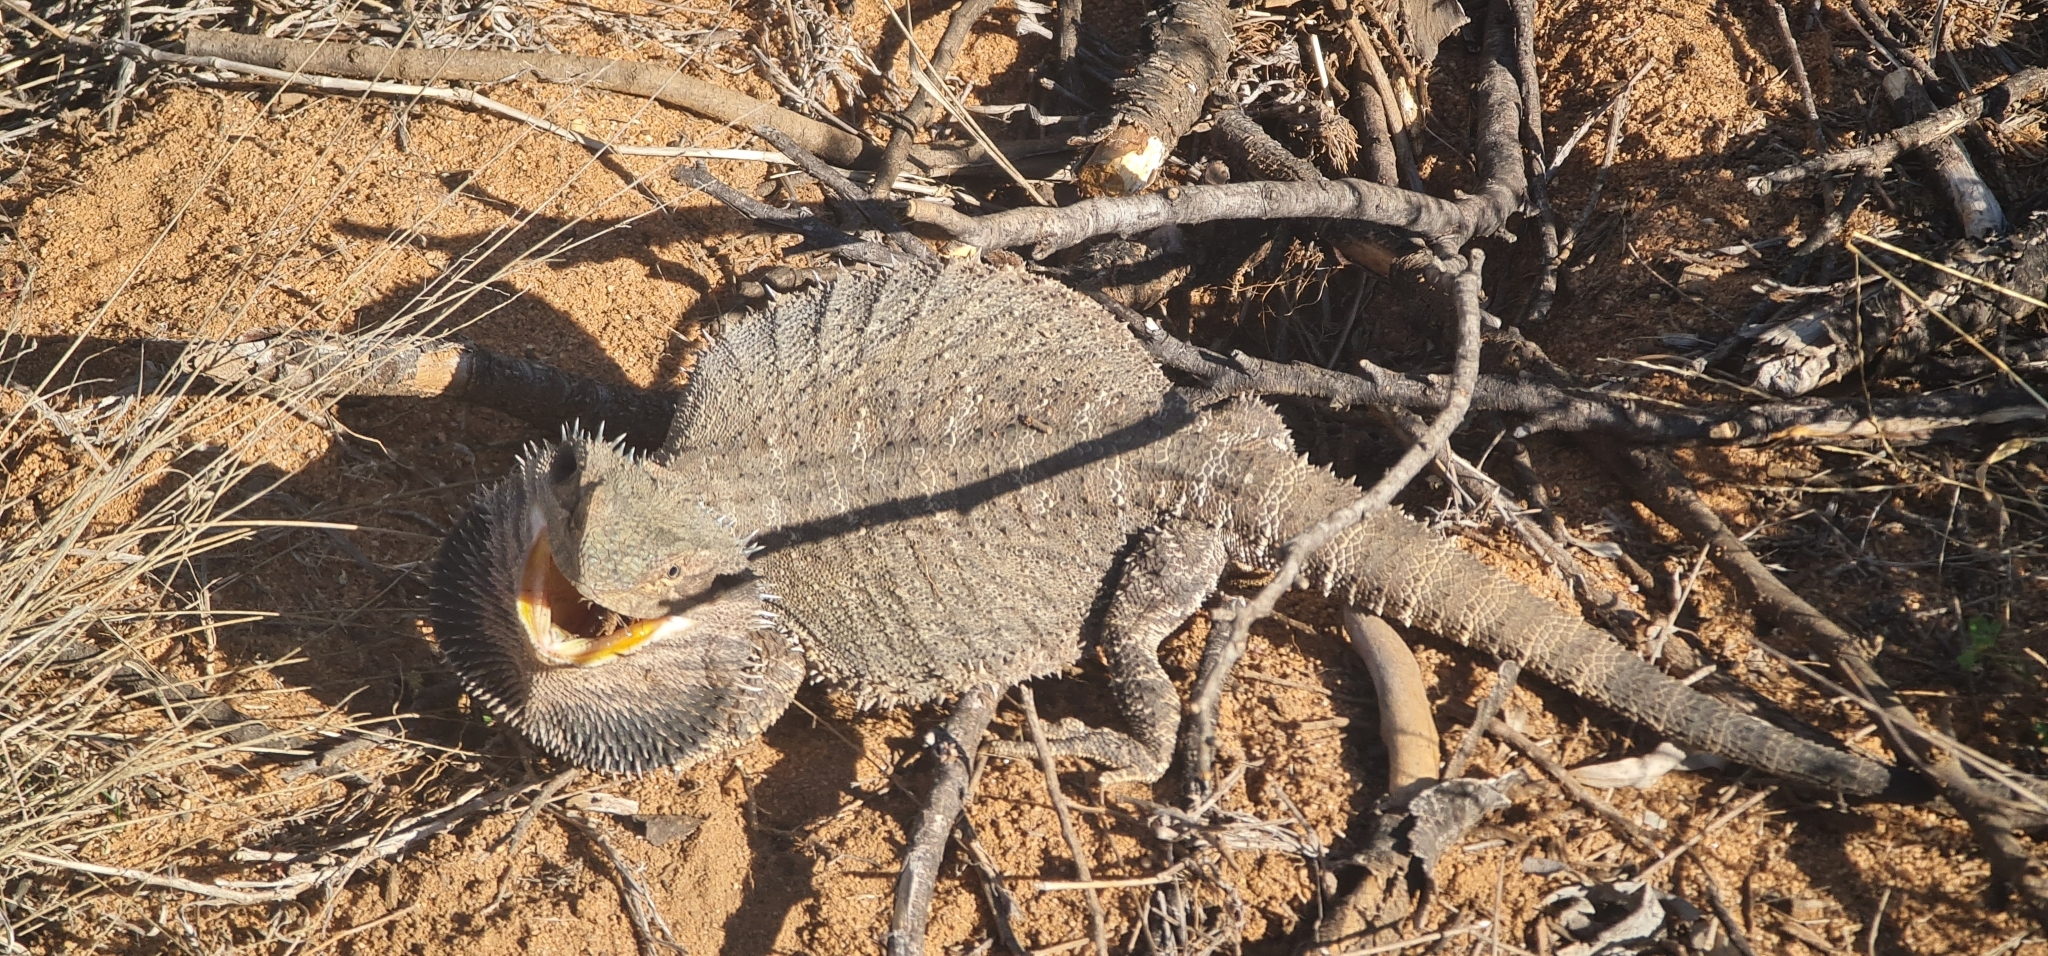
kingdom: Animalia
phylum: Chordata
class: Squamata
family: Agamidae
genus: Pogona
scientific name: Pogona barbata
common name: Bearded dragon
